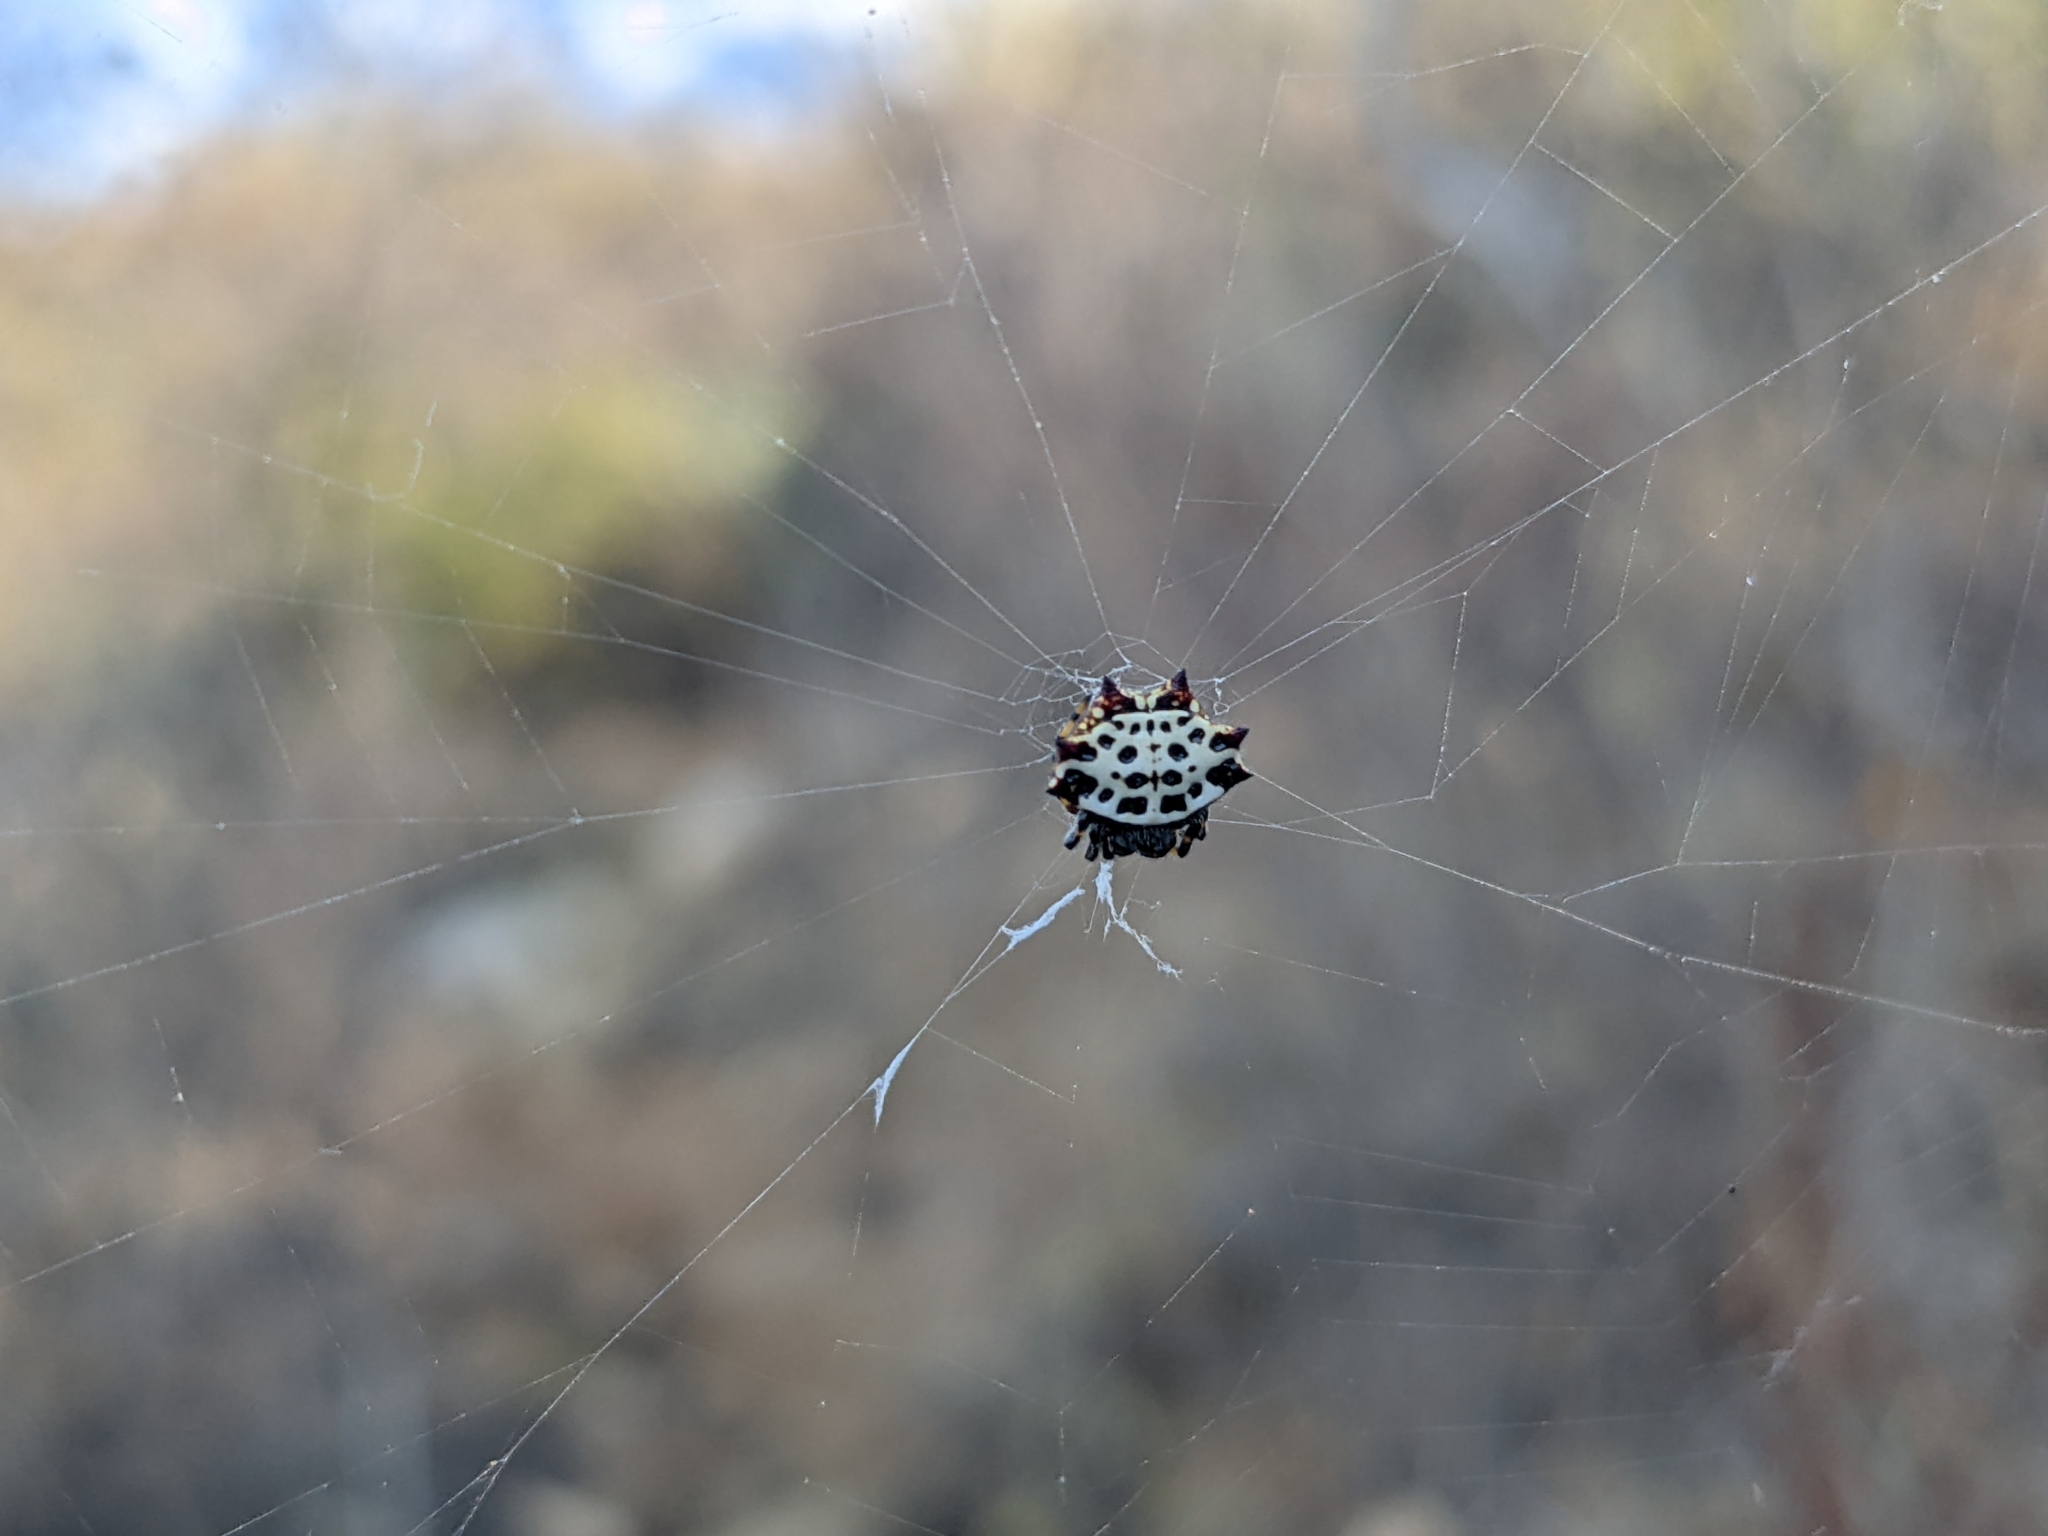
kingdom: Animalia
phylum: Arthropoda
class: Arachnida
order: Araneae
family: Araneidae
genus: Gasteracantha
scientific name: Gasteracantha cancriformis
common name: Orb weavers
